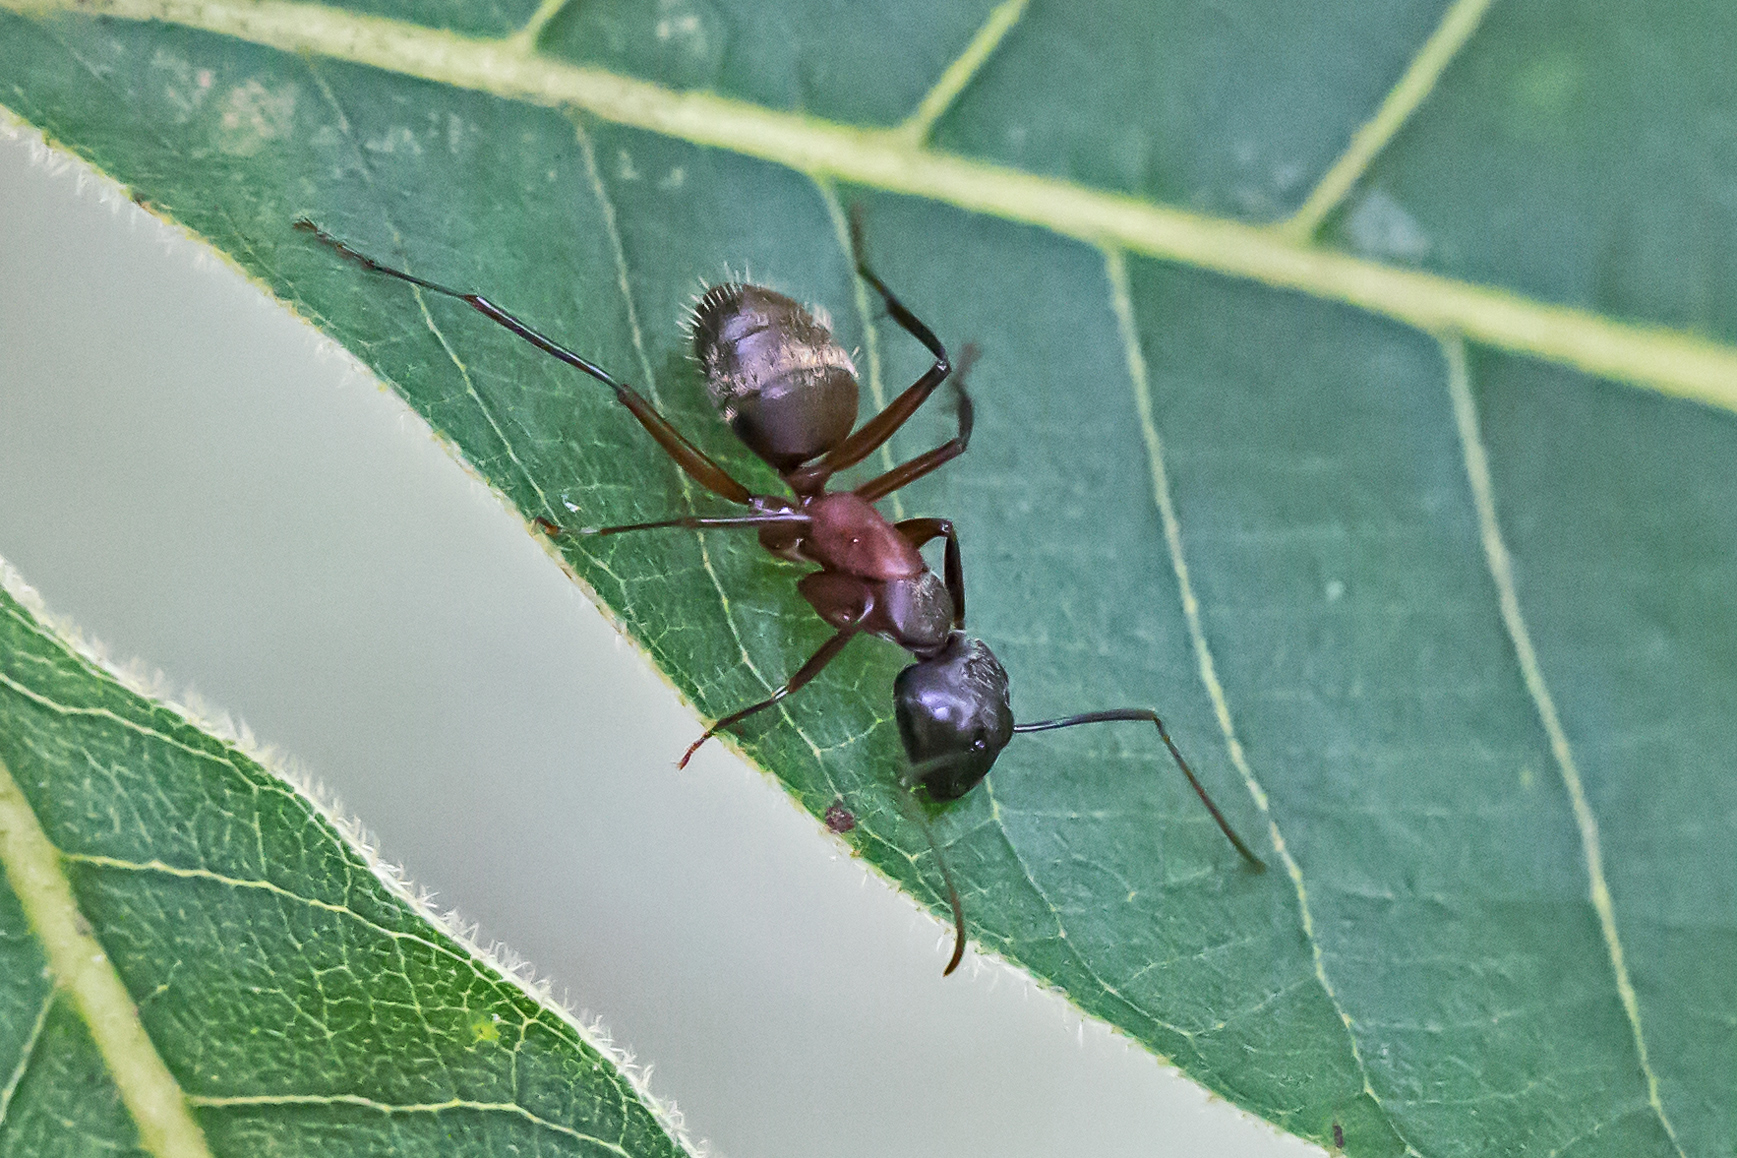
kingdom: Animalia
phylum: Arthropoda
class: Insecta
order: Hymenoptera
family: Formicidae
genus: Camponotus
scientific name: Camponotus chromaiodes
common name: Red carpenter ant
